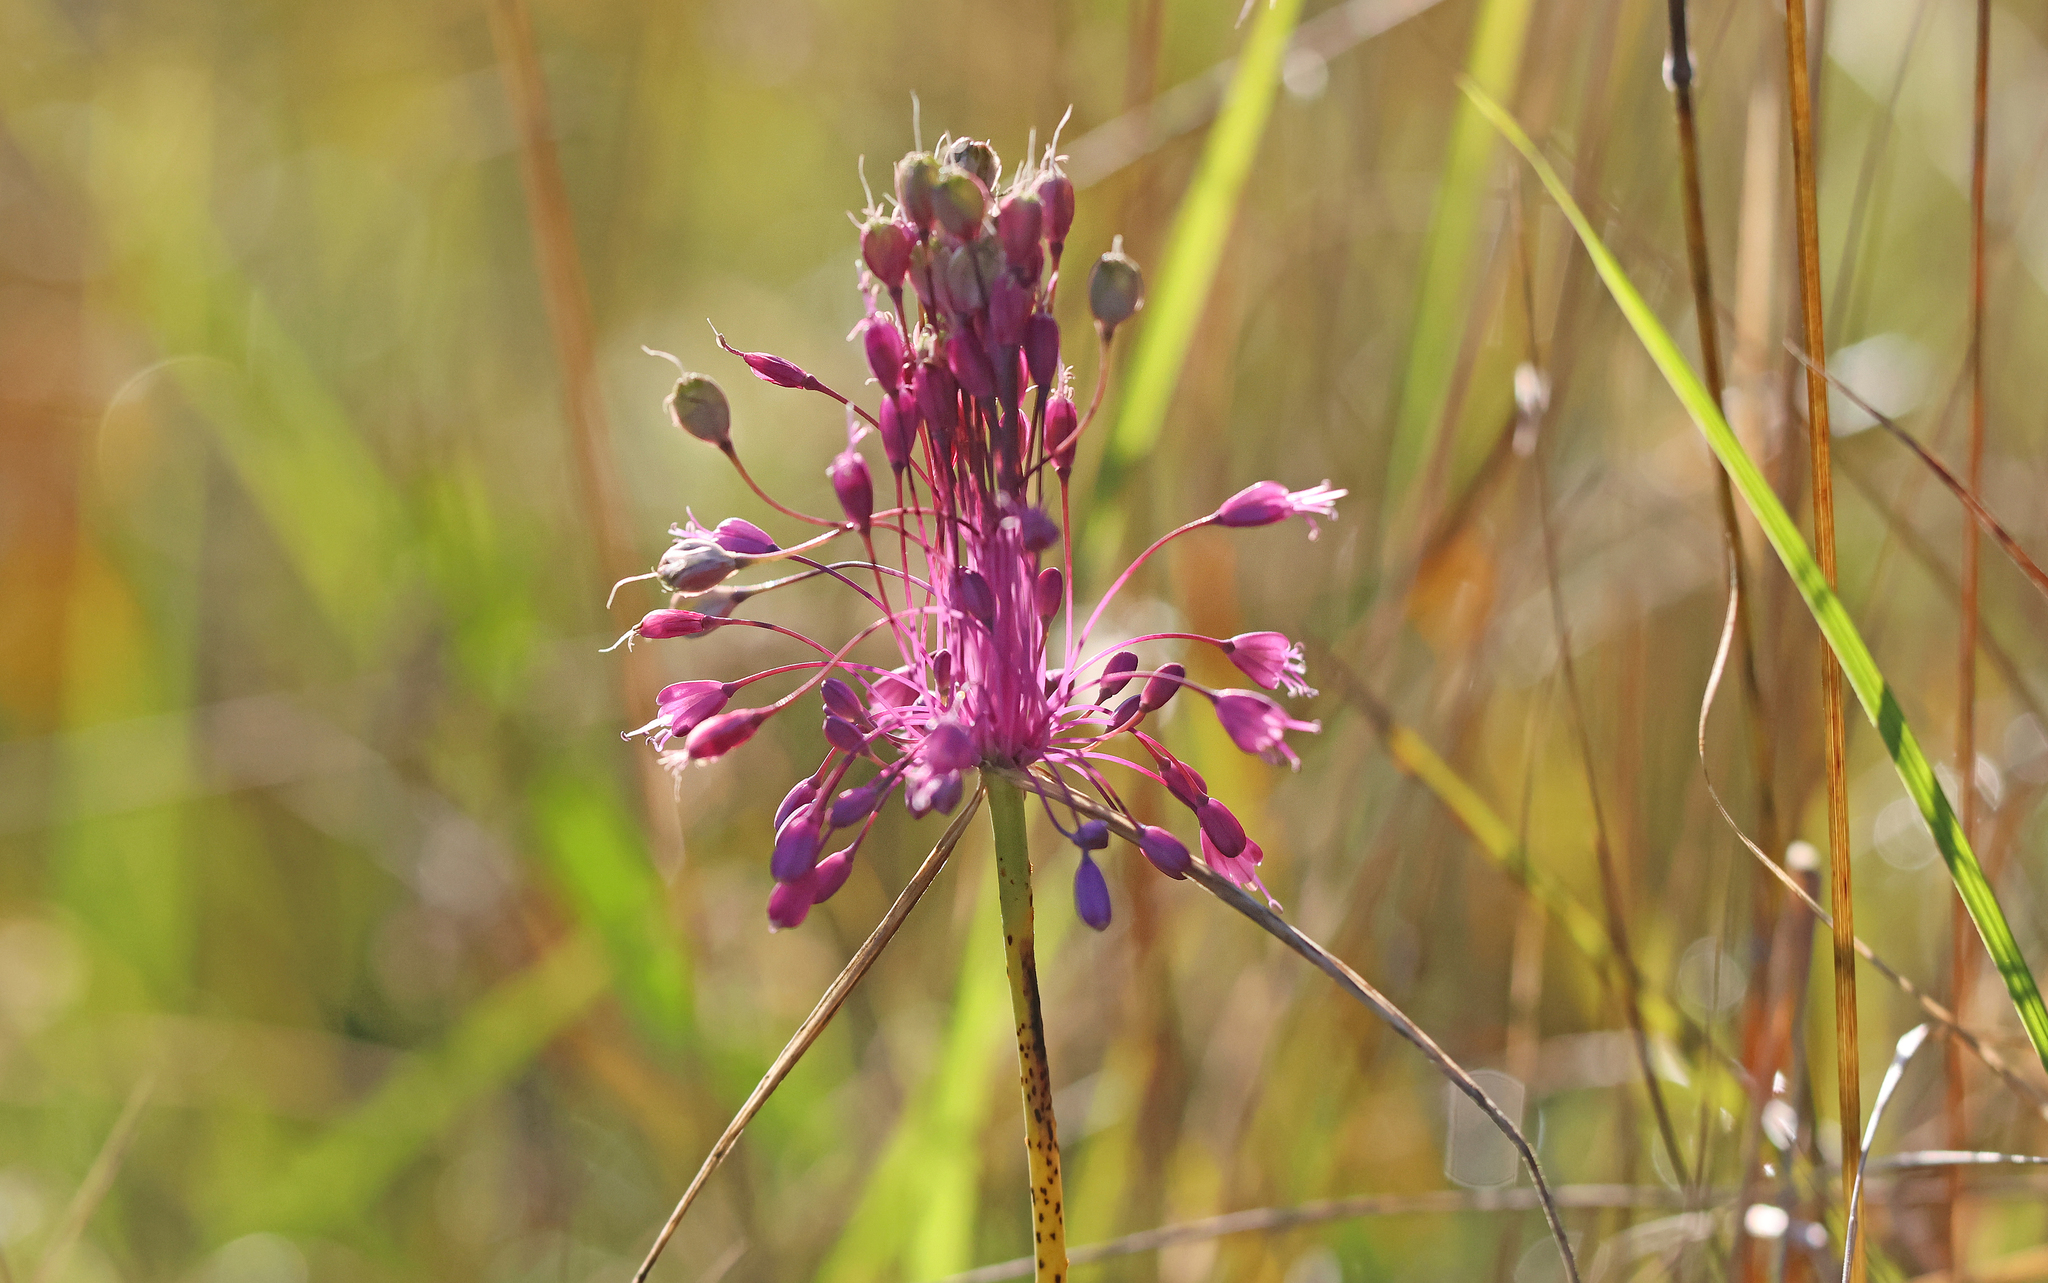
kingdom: Plantae
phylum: Tracheophyta
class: Liliopsida
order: Asparagales
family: Amaryllidaceae
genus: Allium
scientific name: Allium coloratum
